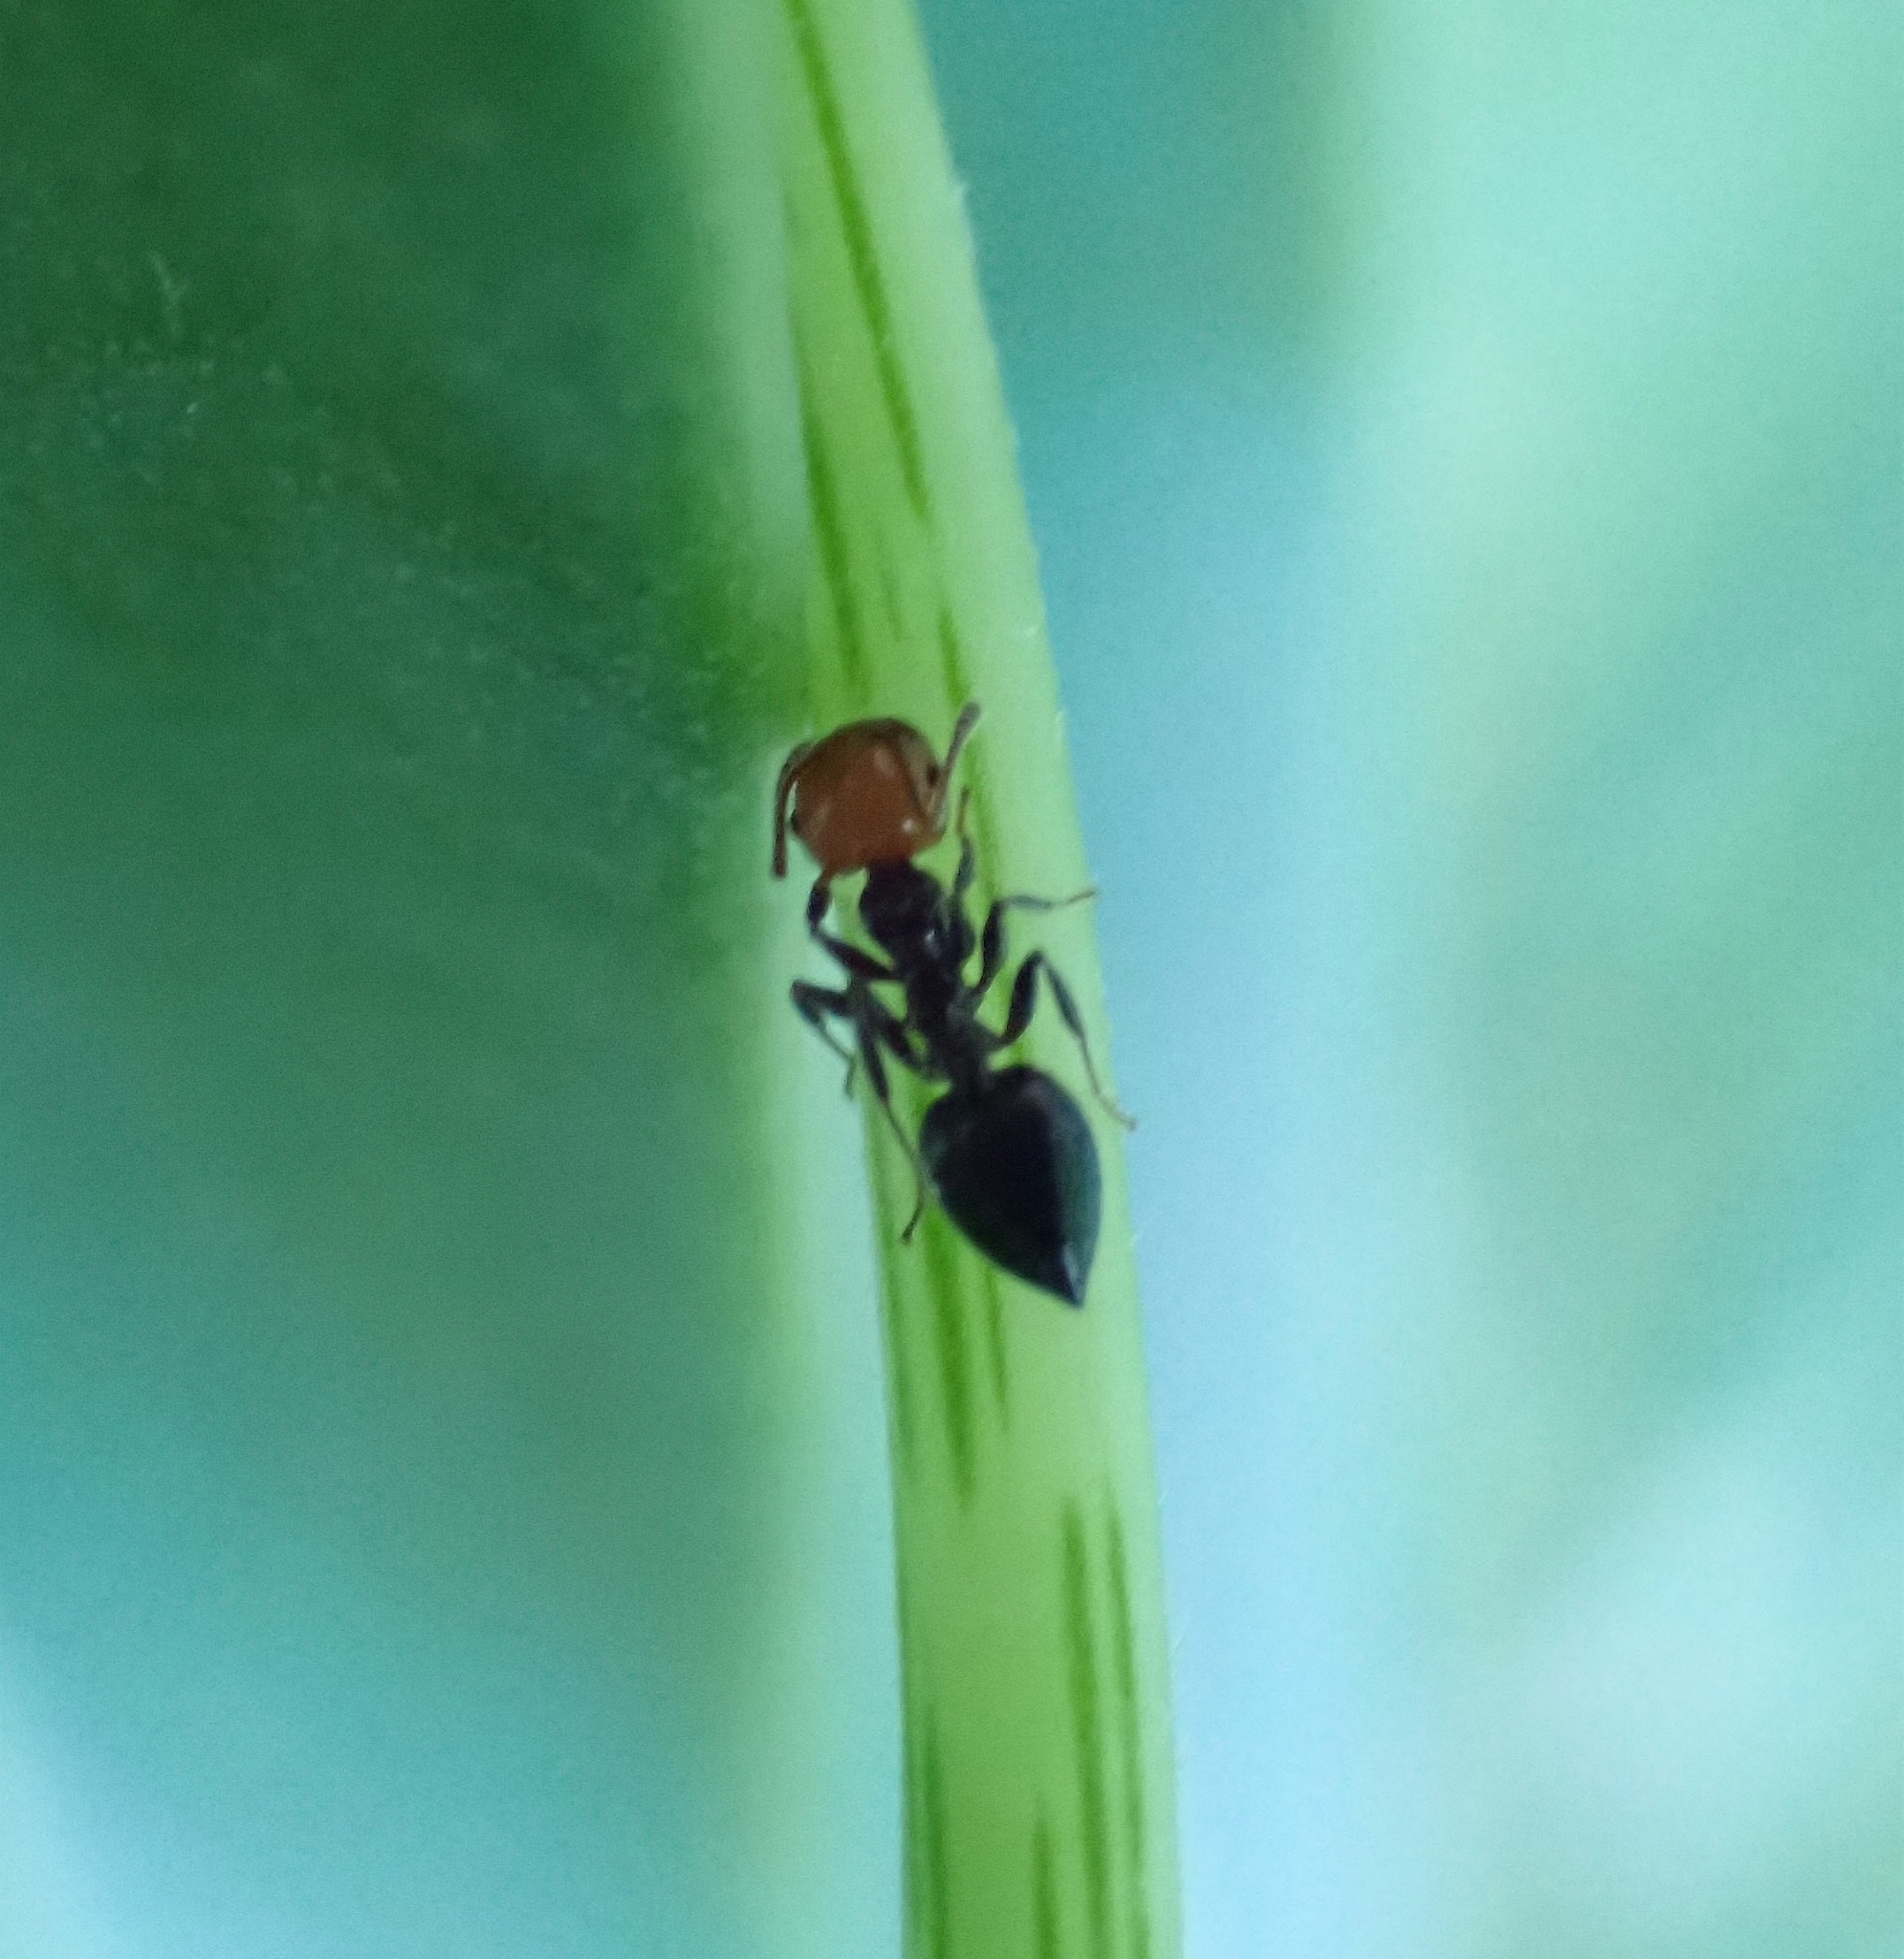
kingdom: Animalia
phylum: Arthropoda
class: Insecta
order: Hymenoptera
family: Formicidae
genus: Crematogaster
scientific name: Crematogaster alluaudi
